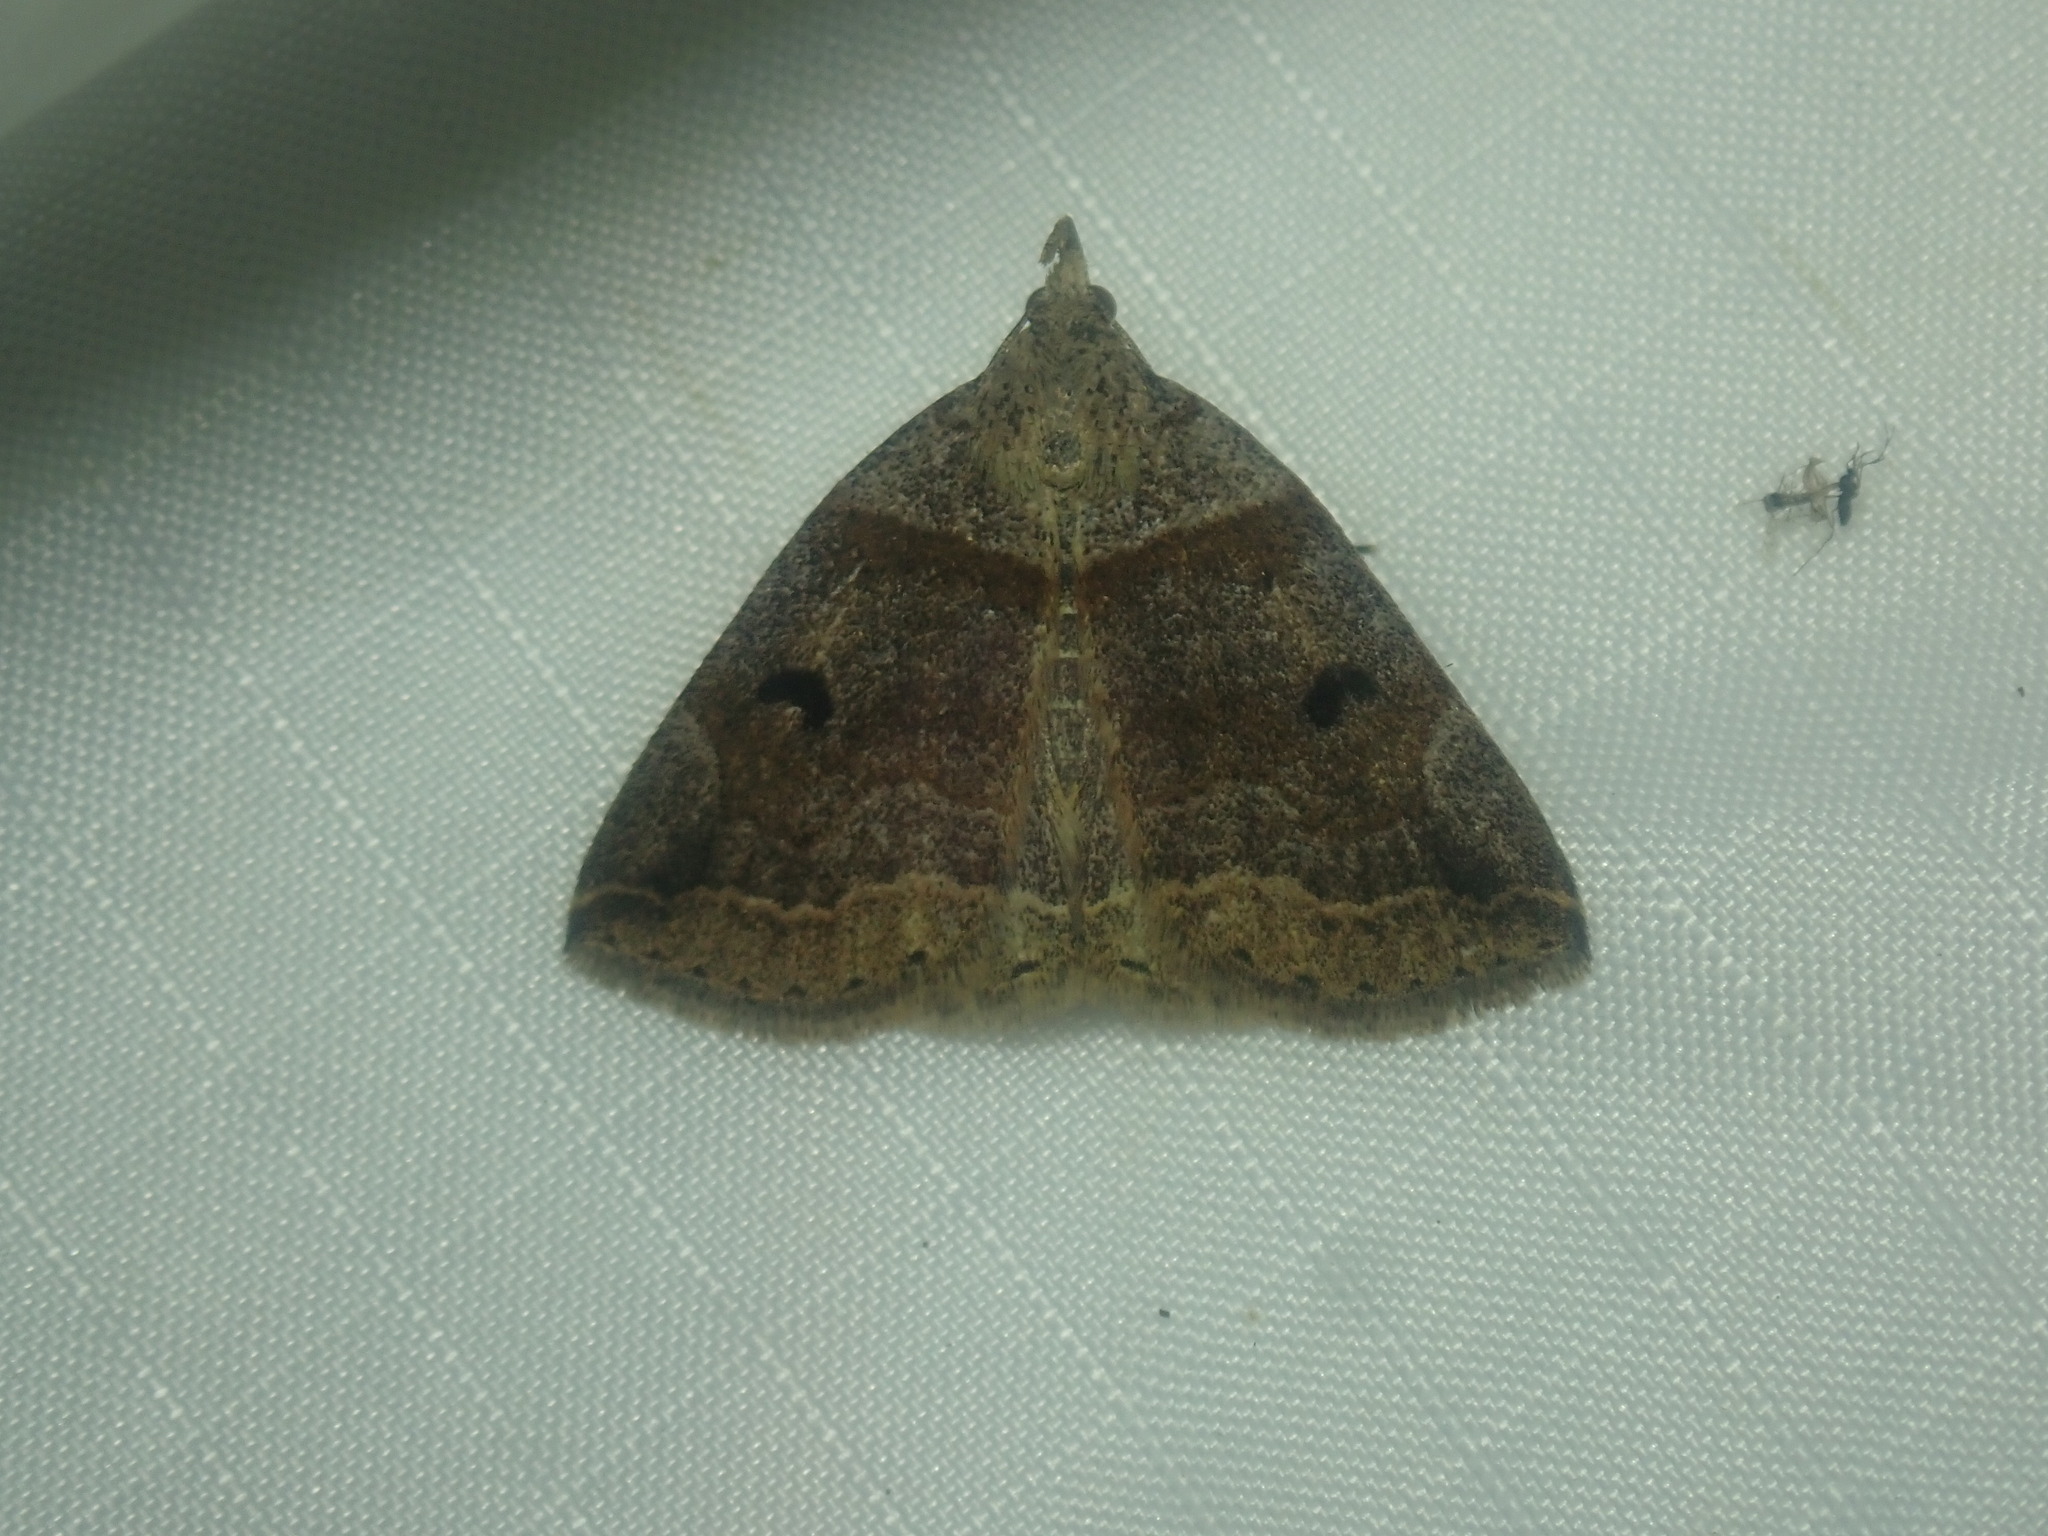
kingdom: Animalia
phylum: Arthropoda
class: Insecta
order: Lepidoptera
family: Erebidae
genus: Zanclognatha
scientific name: Zanclognatha laevigata
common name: Variable fan-foot
